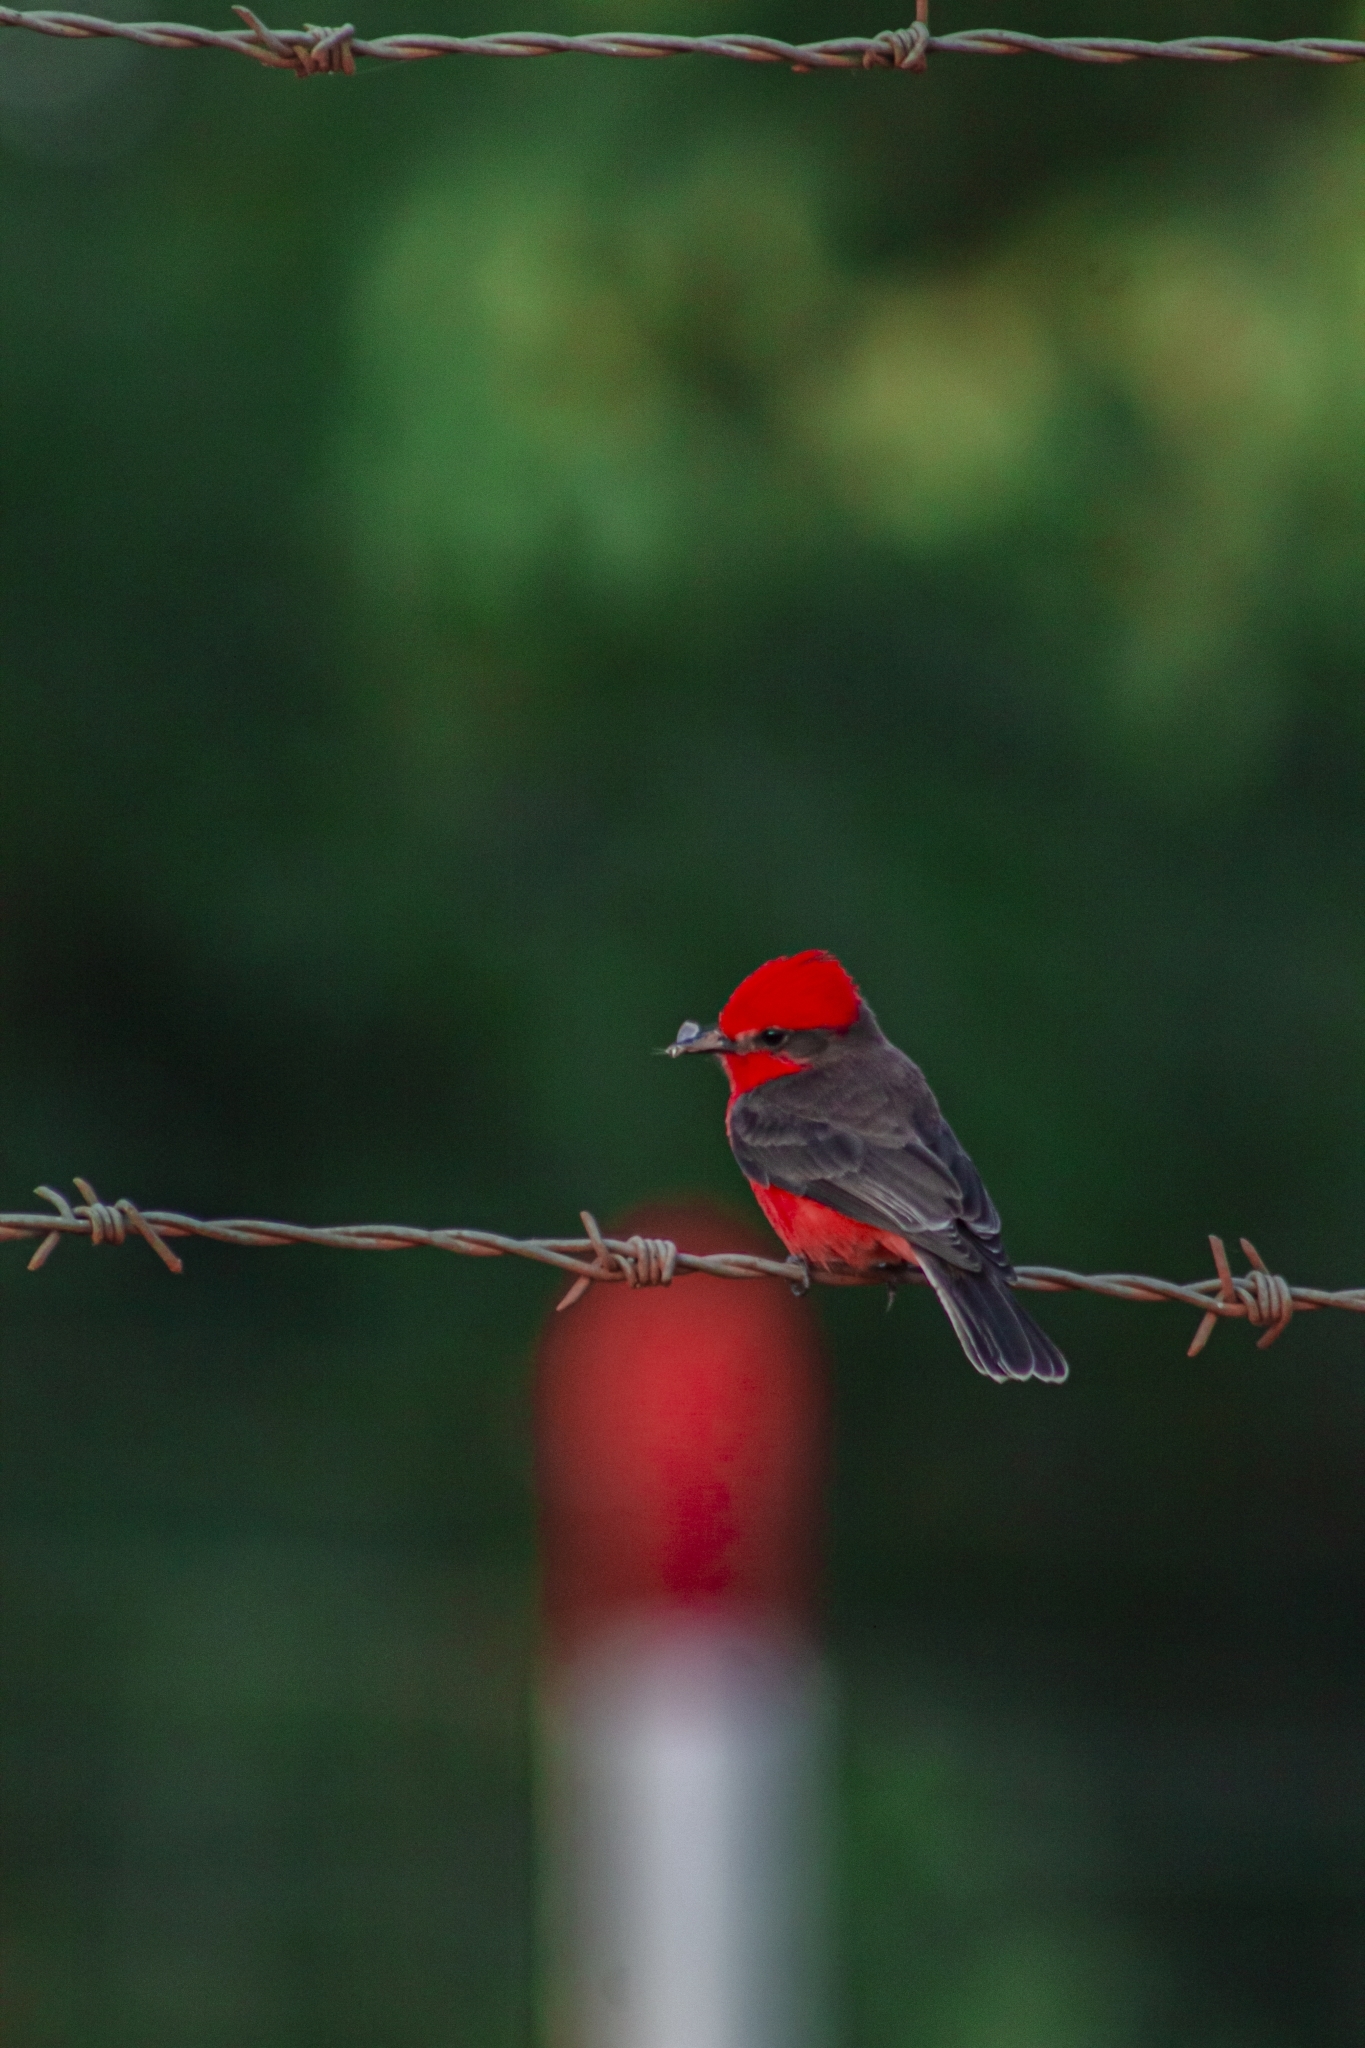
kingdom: Animalia
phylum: Chordata
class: Aves
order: Passeriformes
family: Tyrannidae
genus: Pyrocephalus
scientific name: Pyrocephalus rubinus
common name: Vermilion flycatcher
